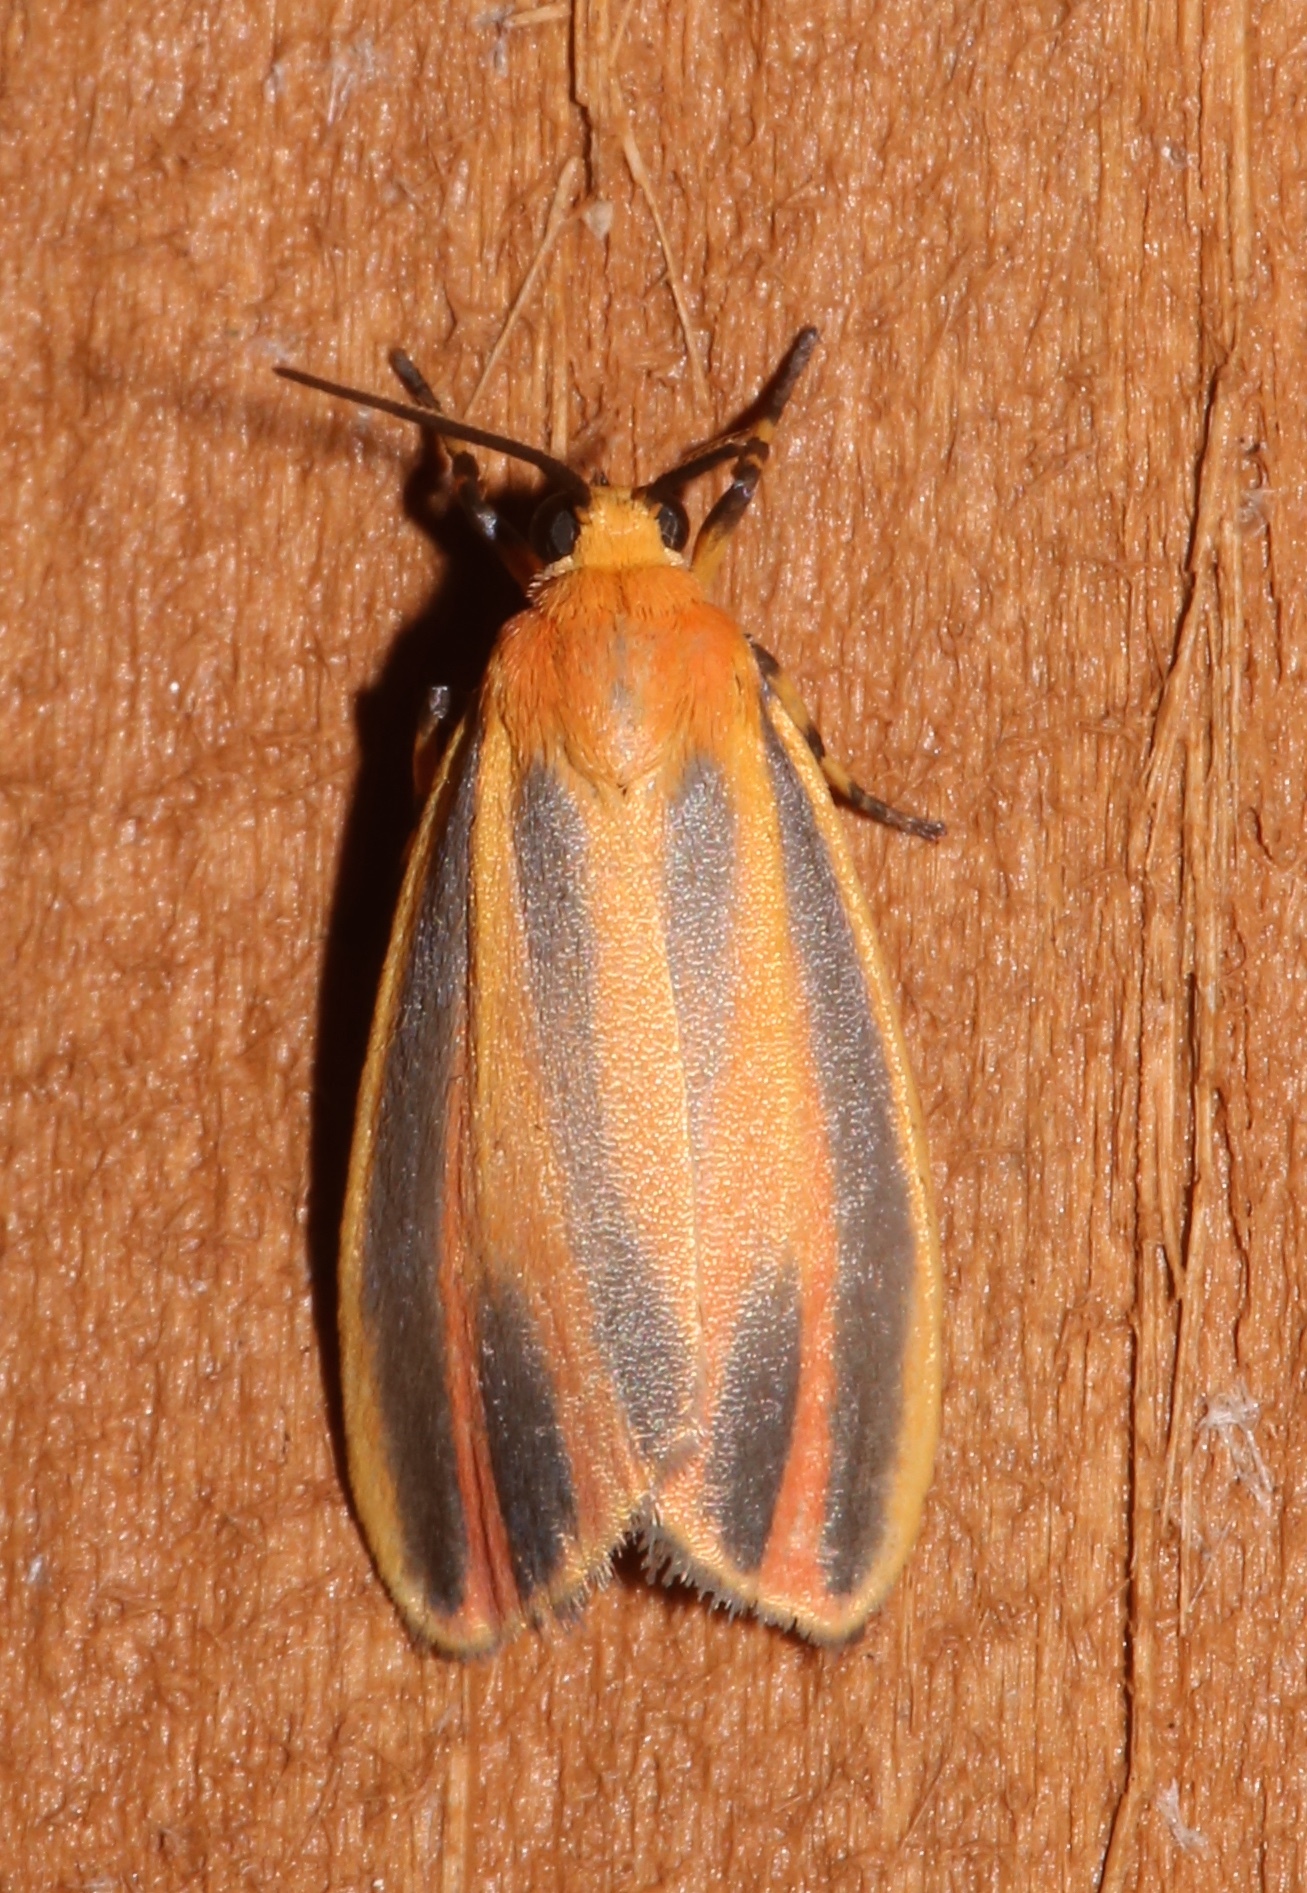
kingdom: Animalia
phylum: Arthropoda
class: Insecta
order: Lepidoptera
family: Erebidae
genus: Hypoprepia
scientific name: Hypoprepia fucosa
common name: Painted lichen moth
